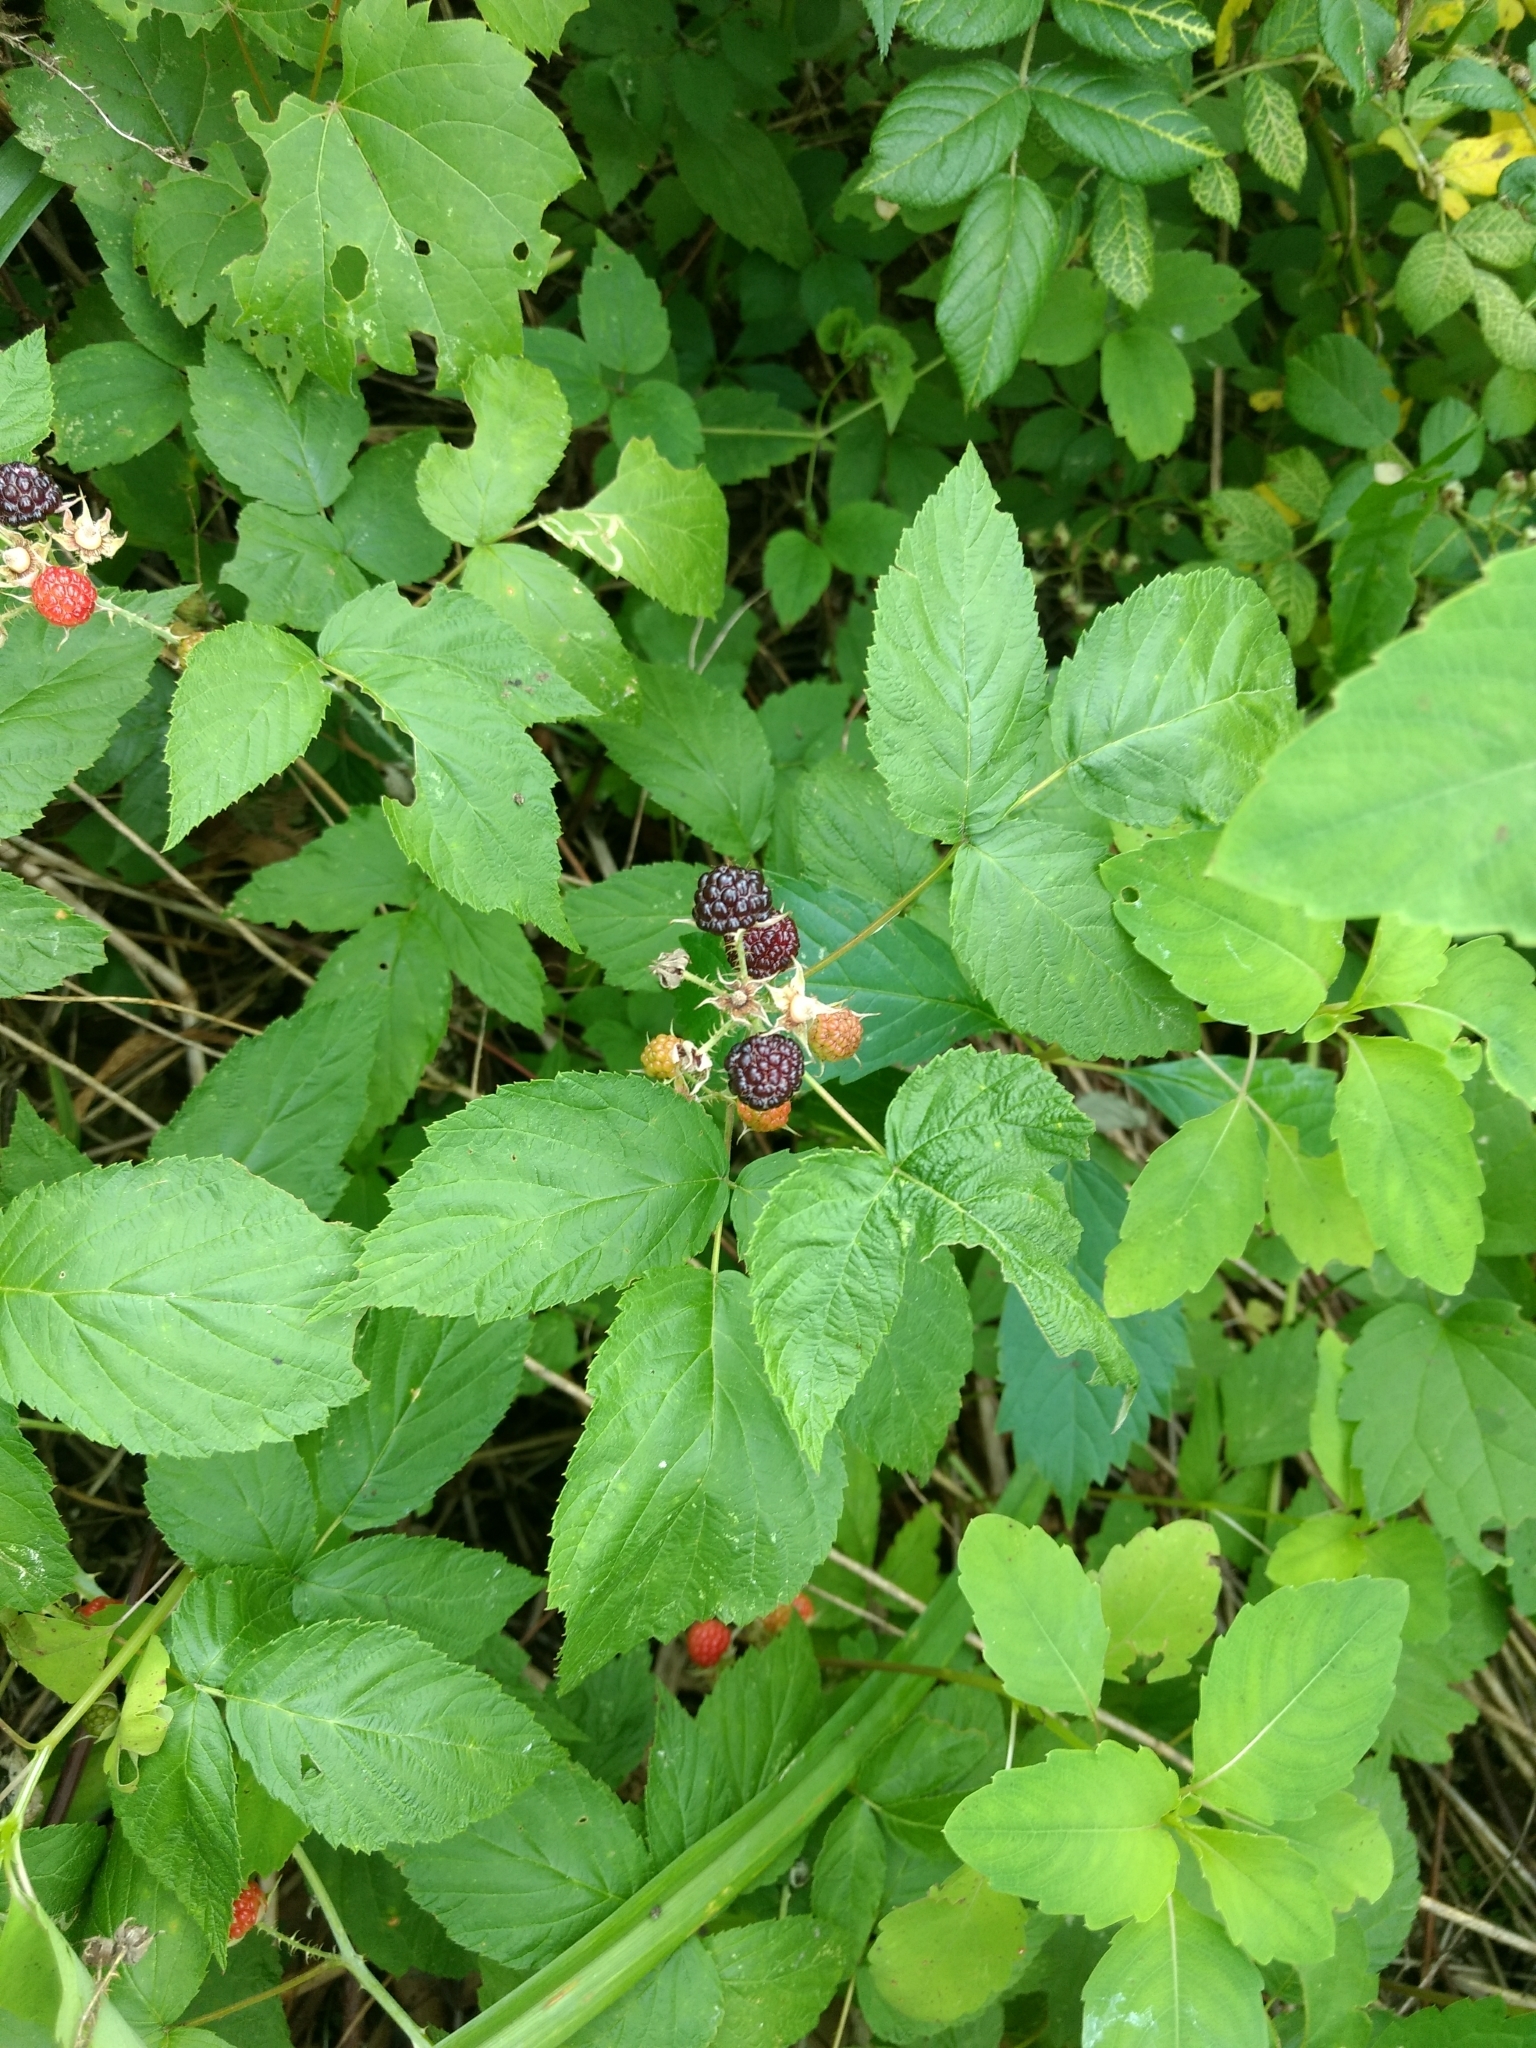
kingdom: Plantae
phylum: Tracheophyta
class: Magnoliopsida
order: Rosales
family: Rosaceae
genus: Rubus
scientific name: Rubus occidentalis
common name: Black raspberry
